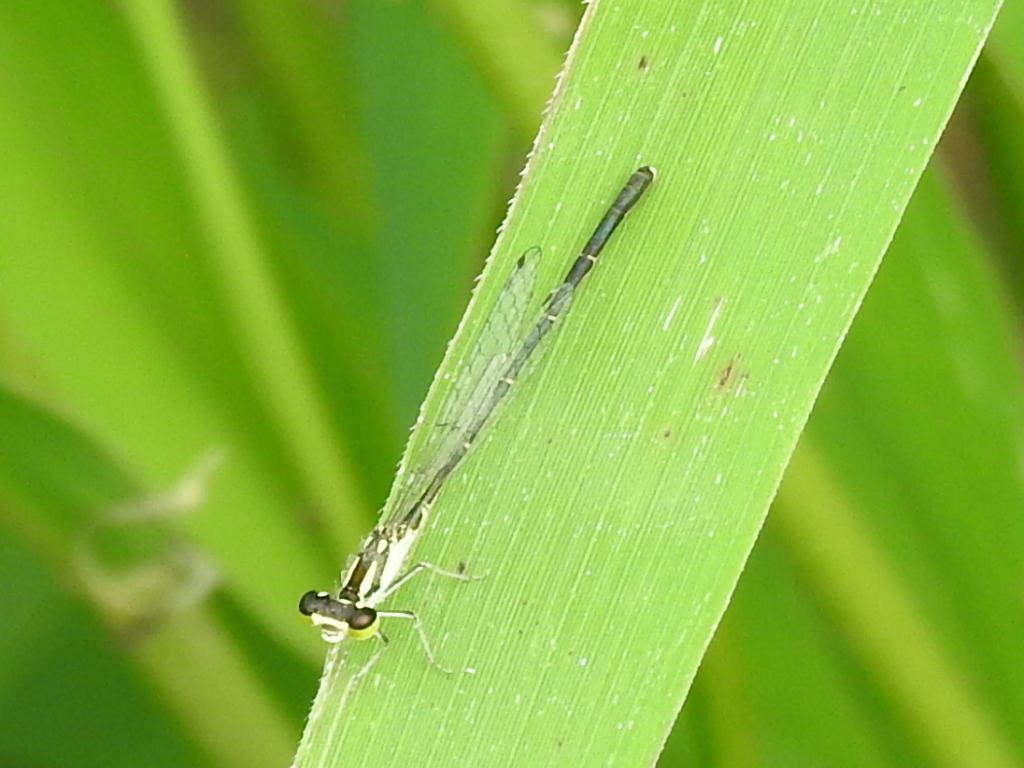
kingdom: Animalia
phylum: Arthropoda
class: Insecta
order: Odonata
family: Coenagrionidae
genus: Ischnura
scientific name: Ischnura posita
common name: Fragile forktail
